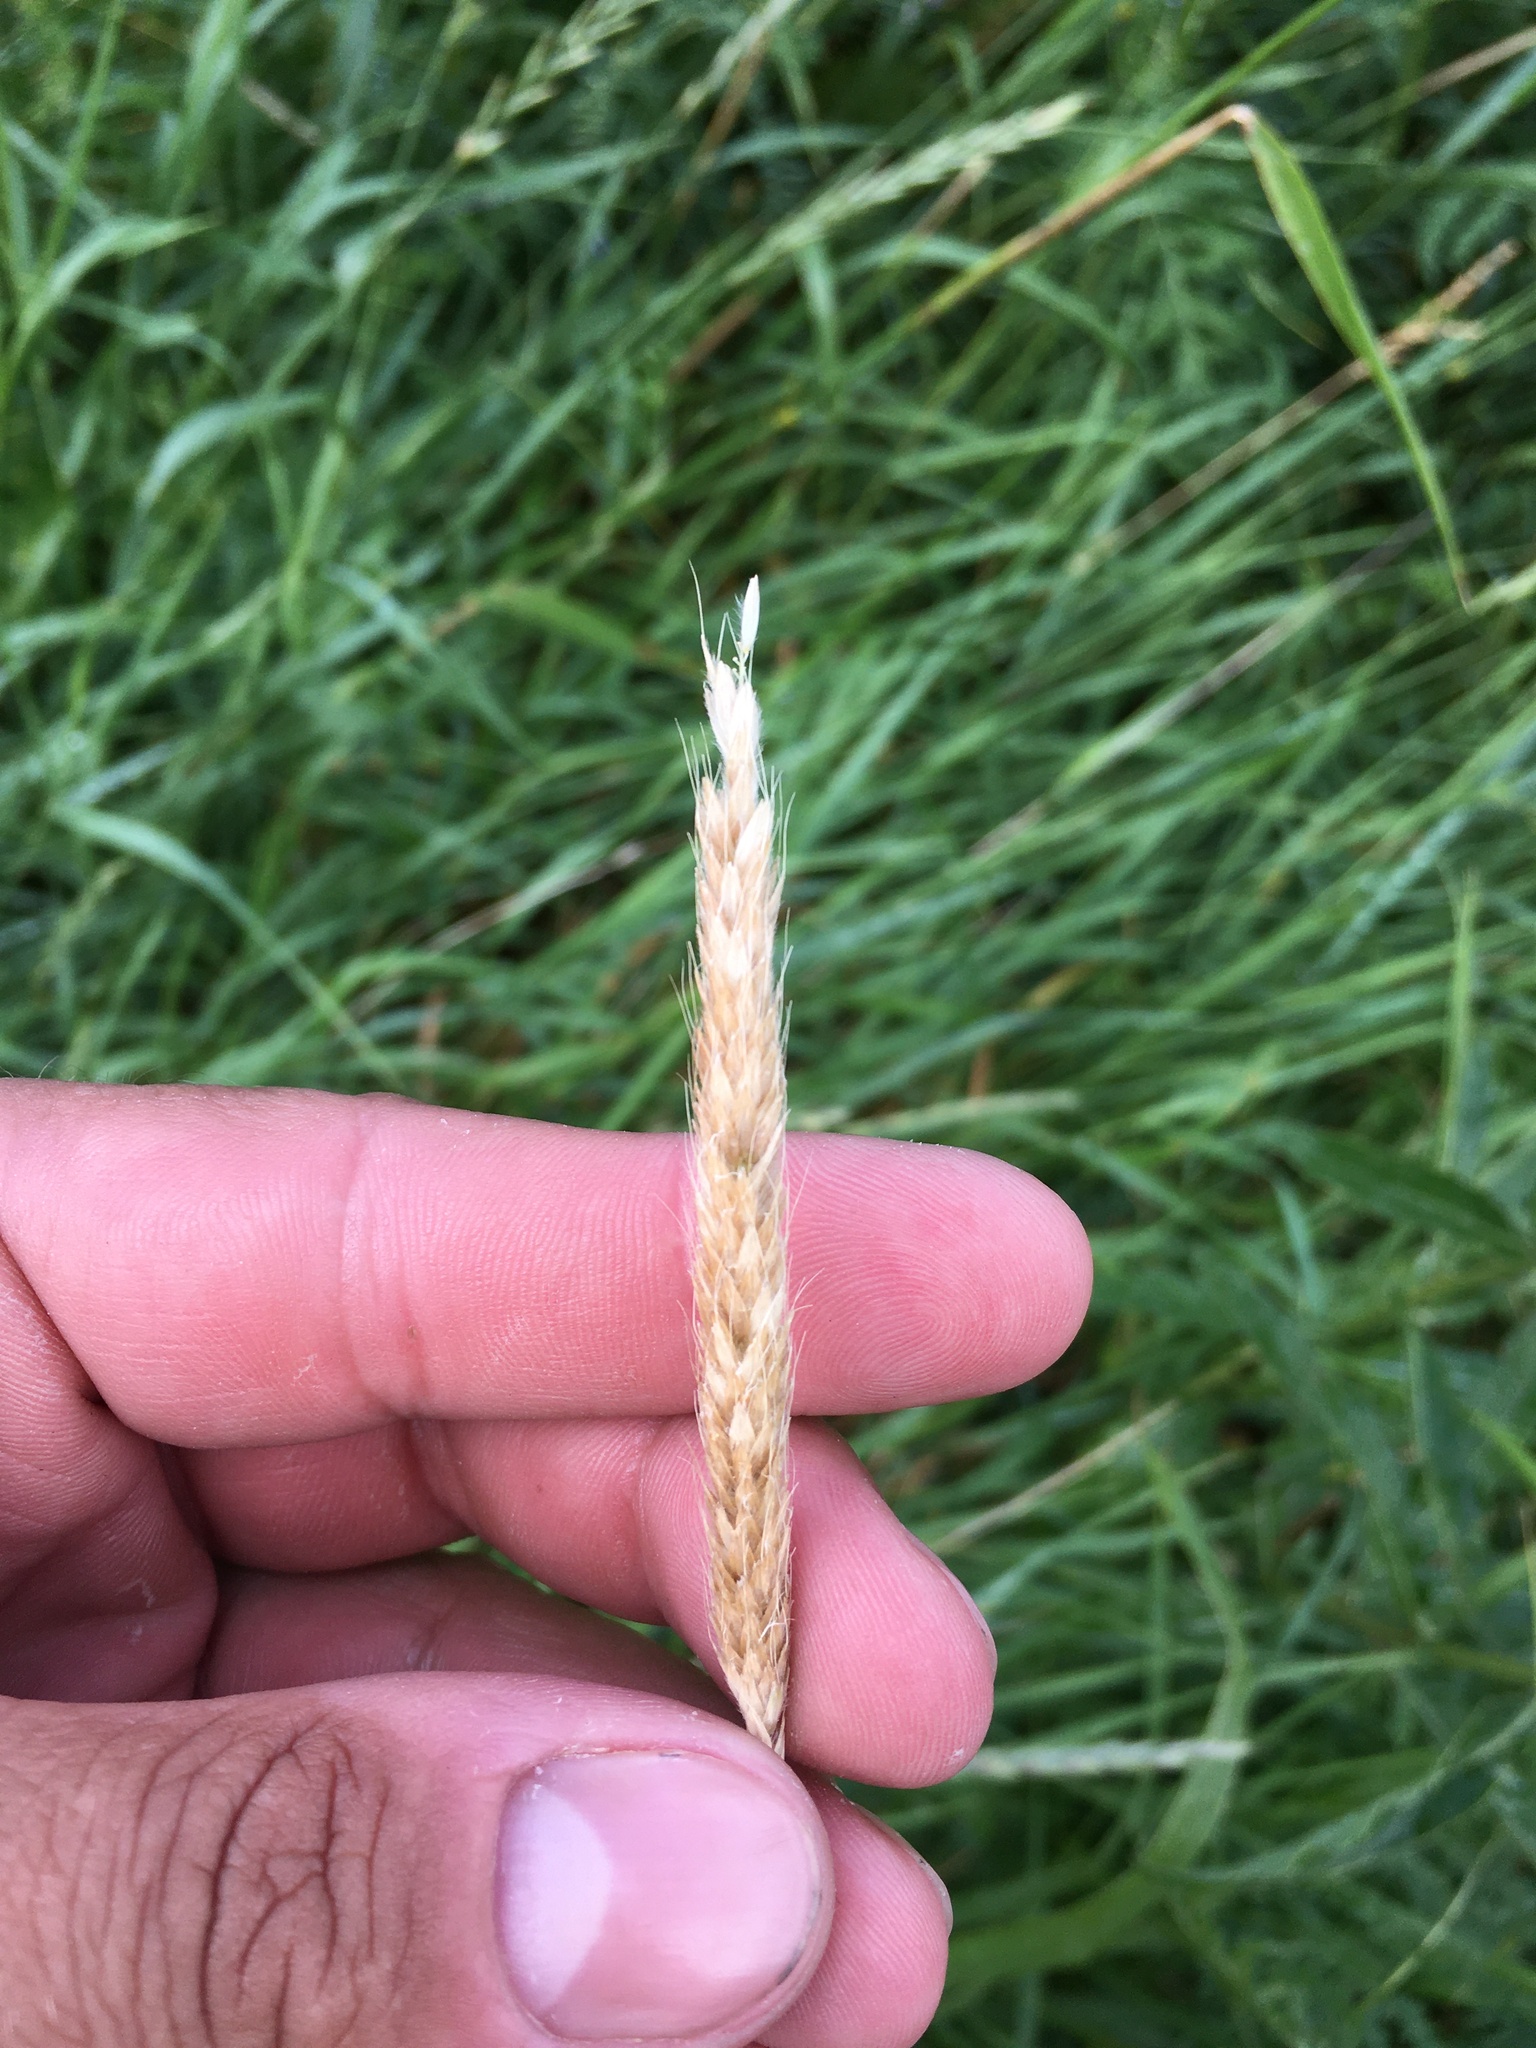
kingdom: Plantae
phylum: Tracheophyta
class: Liliopsida
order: Poales
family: Poaceae
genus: Alopecurus
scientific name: Alopecurus pratensis
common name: Meadow foxtail
